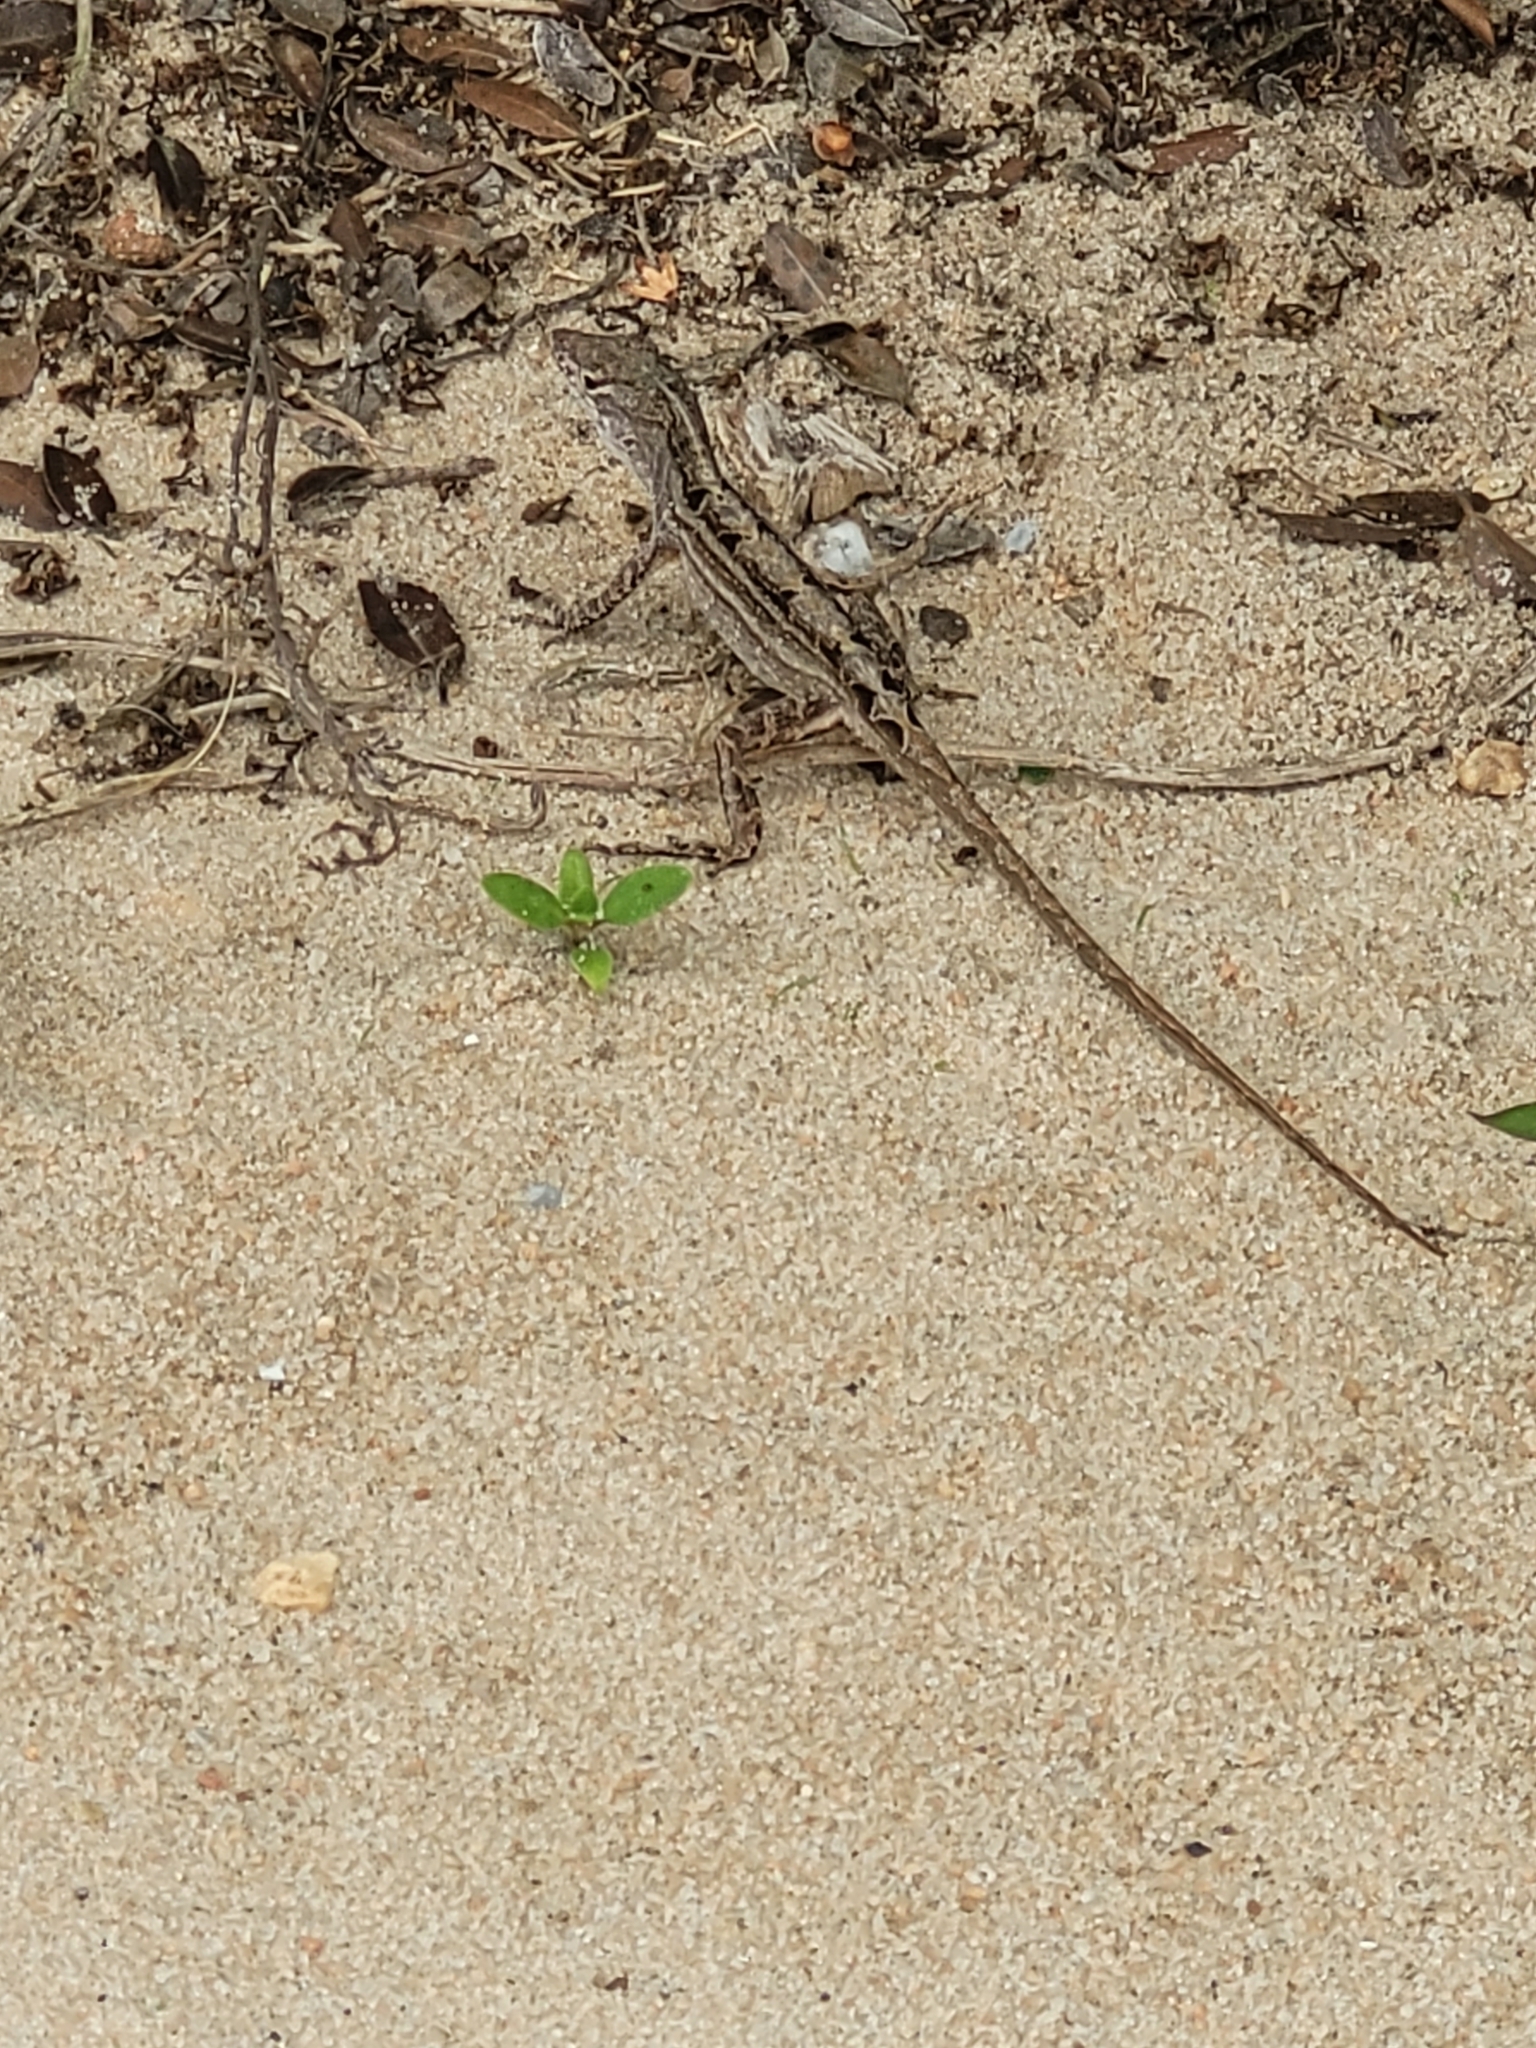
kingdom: Animalia
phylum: Chordata
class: Squamata
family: Dactyloidae
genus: Anolis
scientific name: Anolis sagrei
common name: Brown anole
